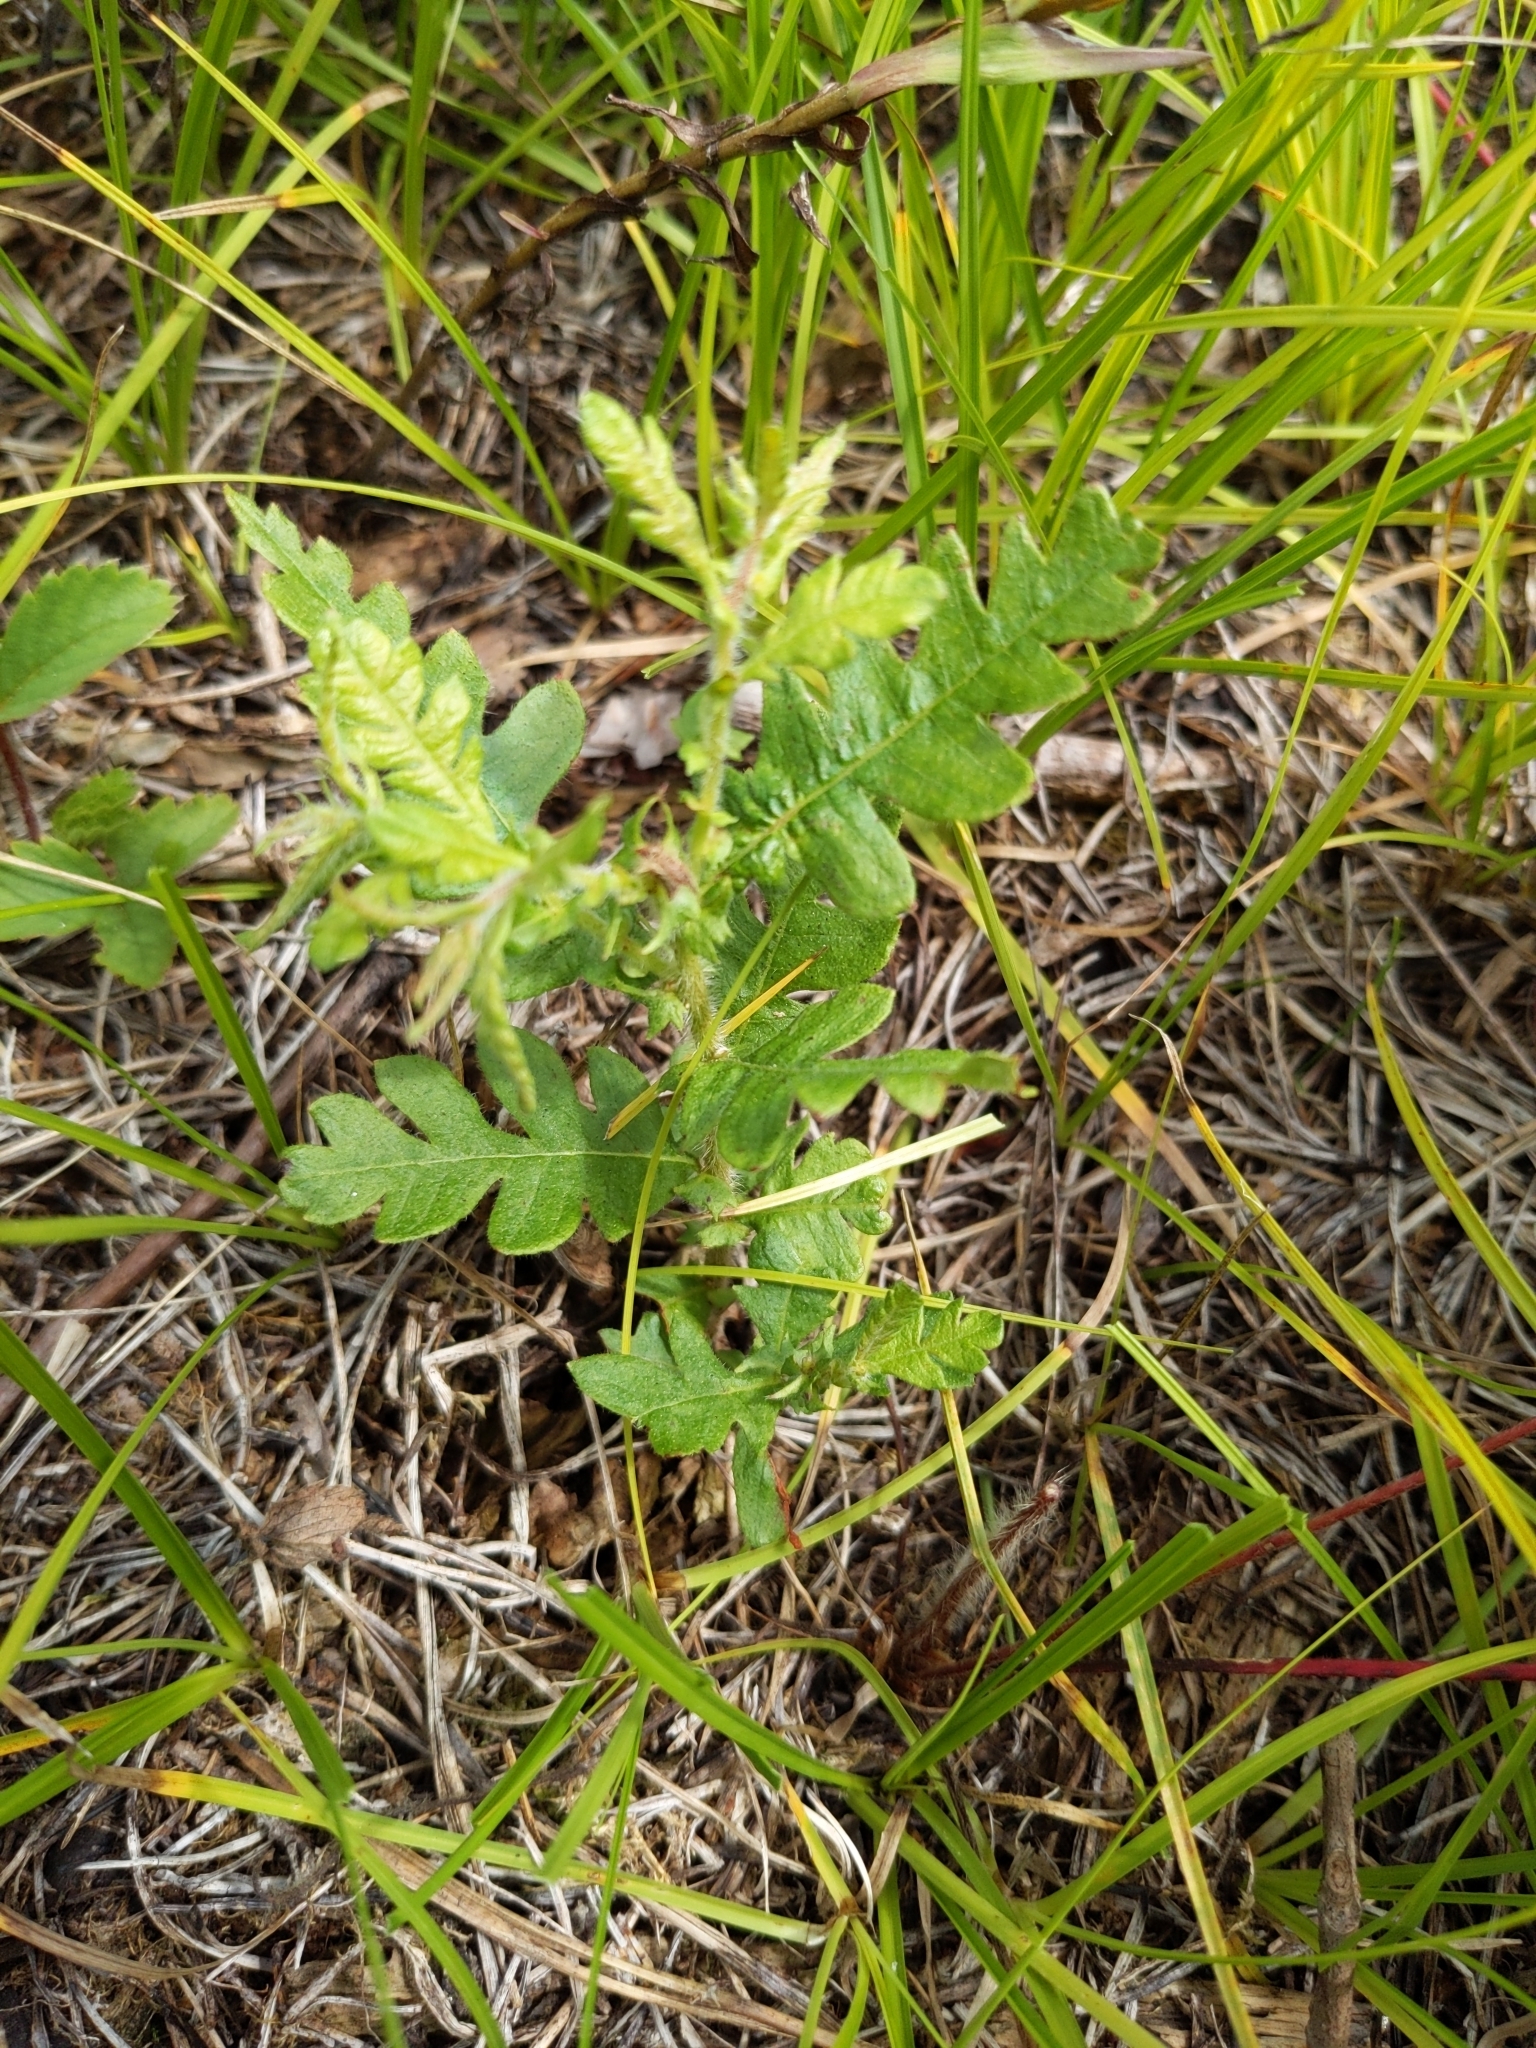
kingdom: Plantae
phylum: Tracheophyta
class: Magnoliopsida
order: Fagales
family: Myricaceae
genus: Comptonia
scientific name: Comptonia peregrina
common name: Sweet-fern
